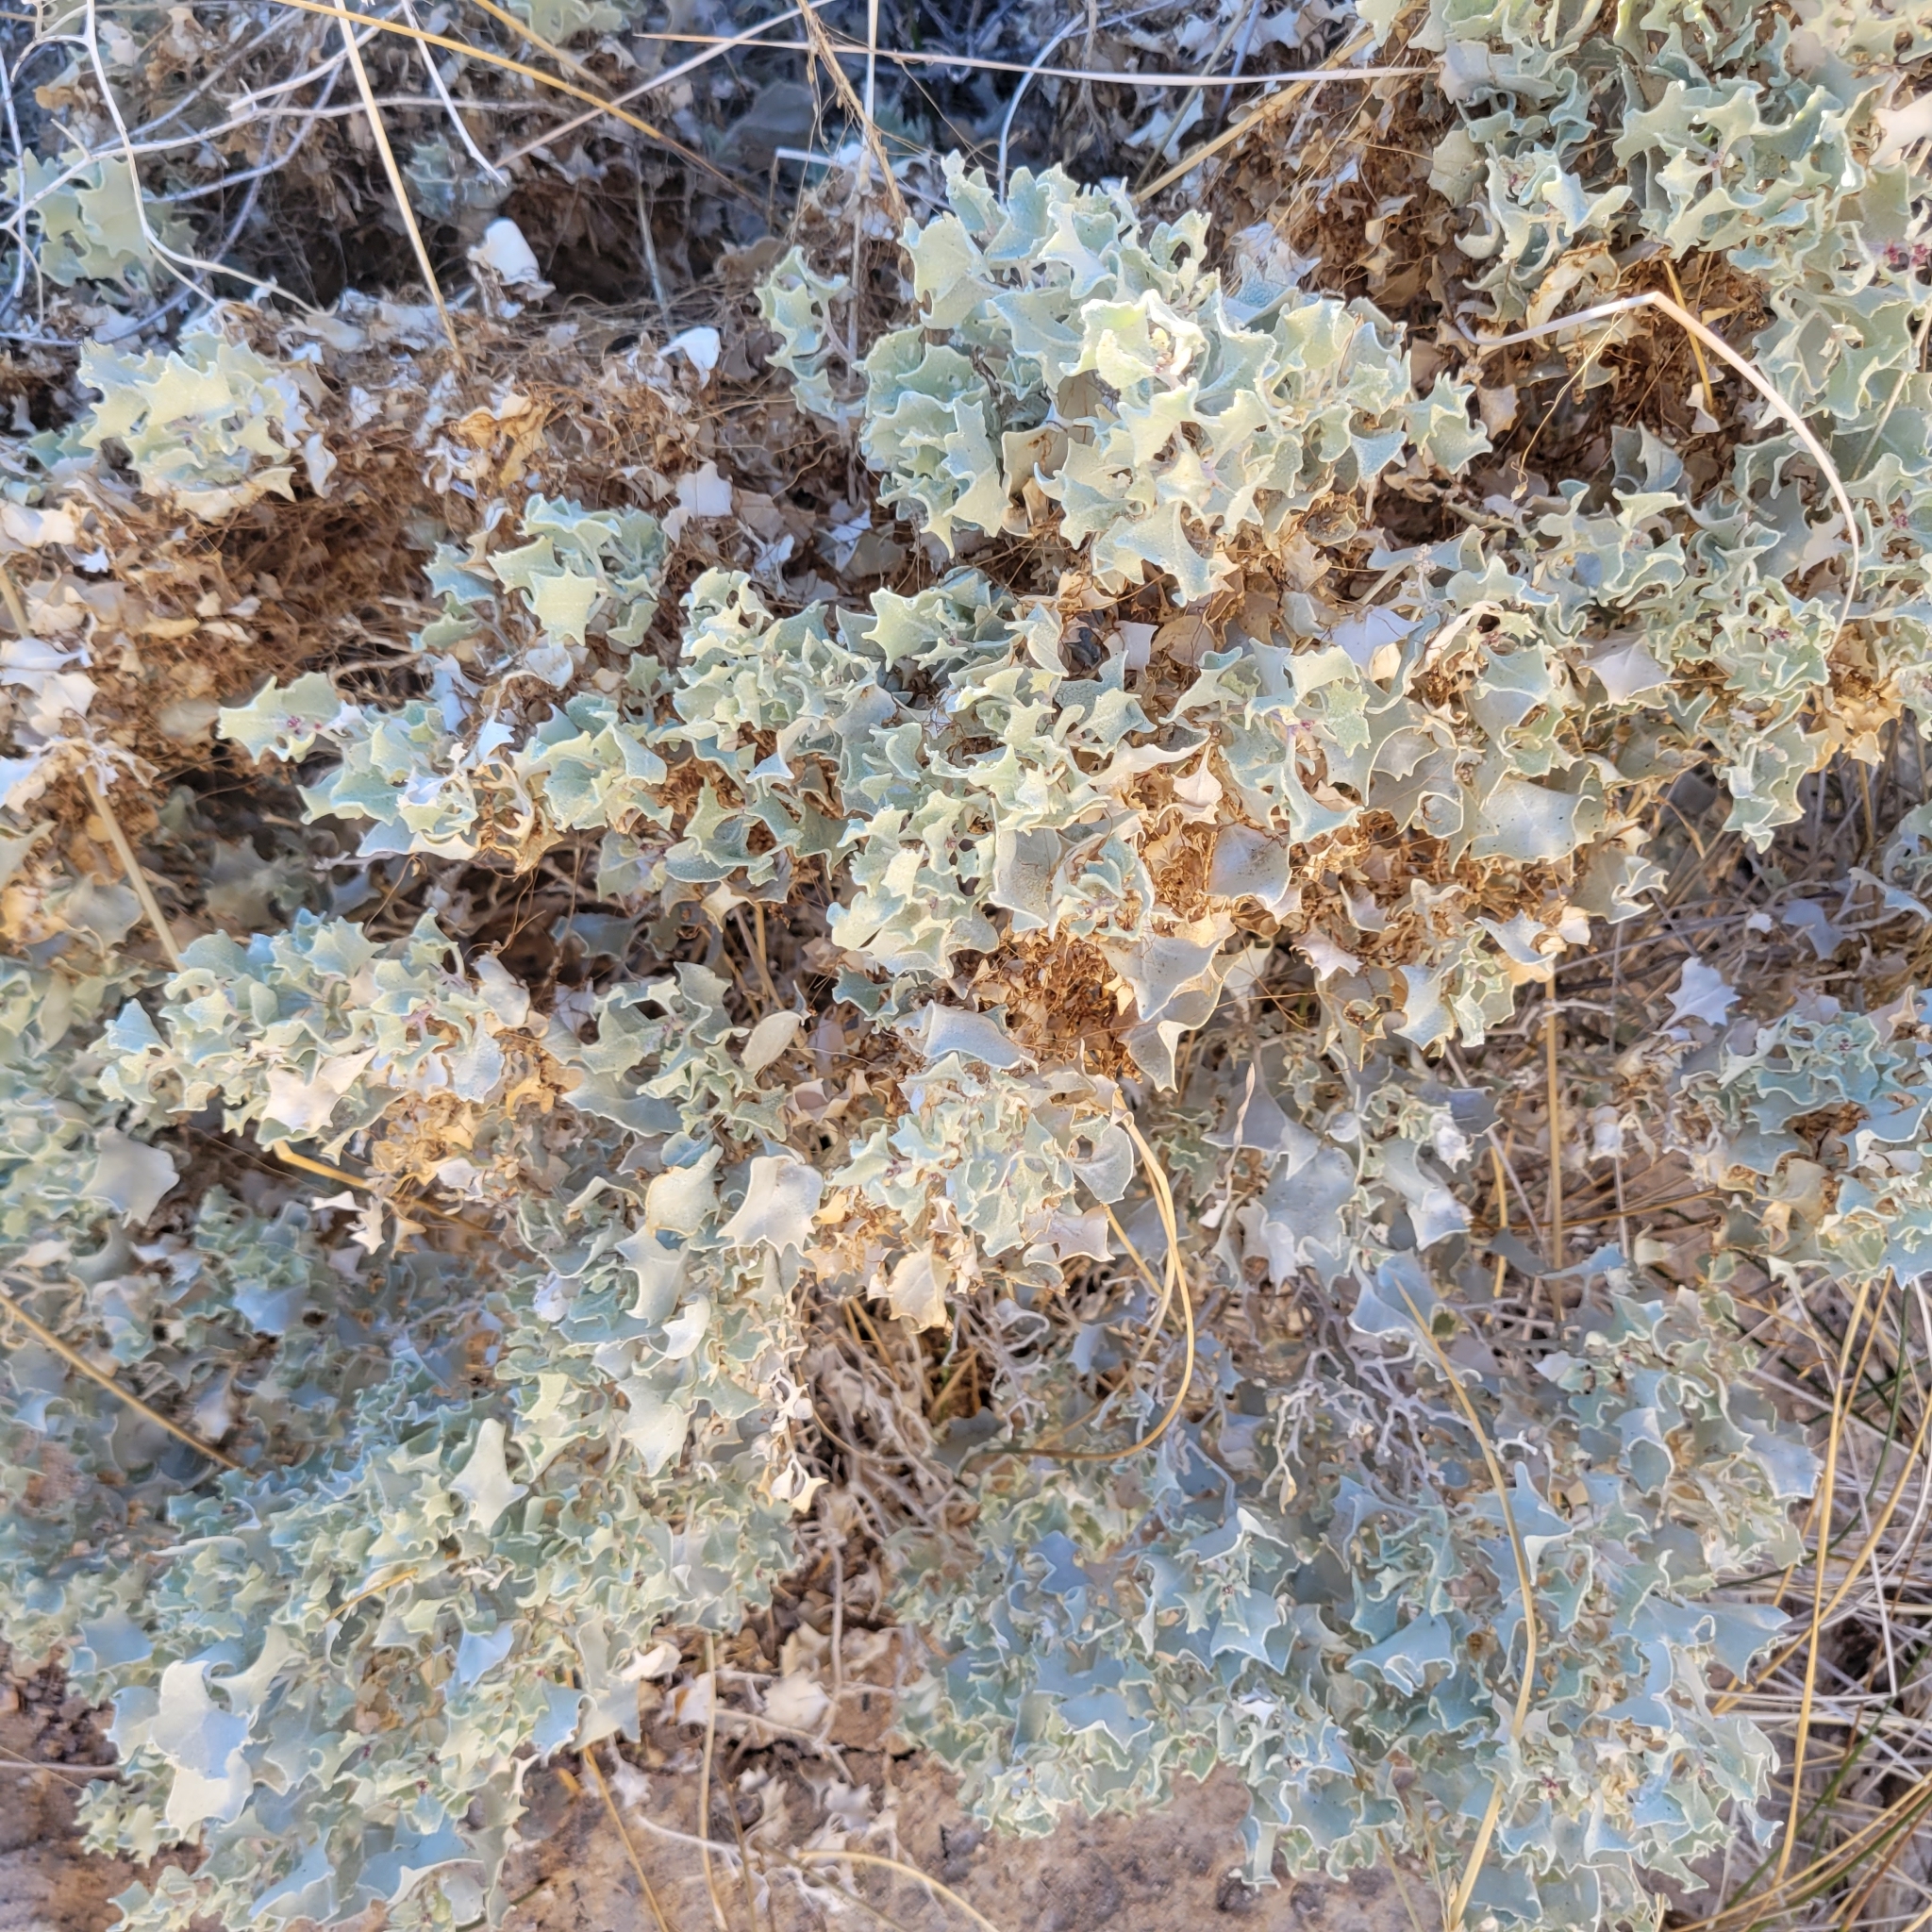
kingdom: Plantae
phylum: Tracheophyta
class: Magnoliopsida
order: Caryophyllales
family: Amaranthaceae
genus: Atriplex
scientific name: Atriplex hymenelytra
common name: Desert-holly
